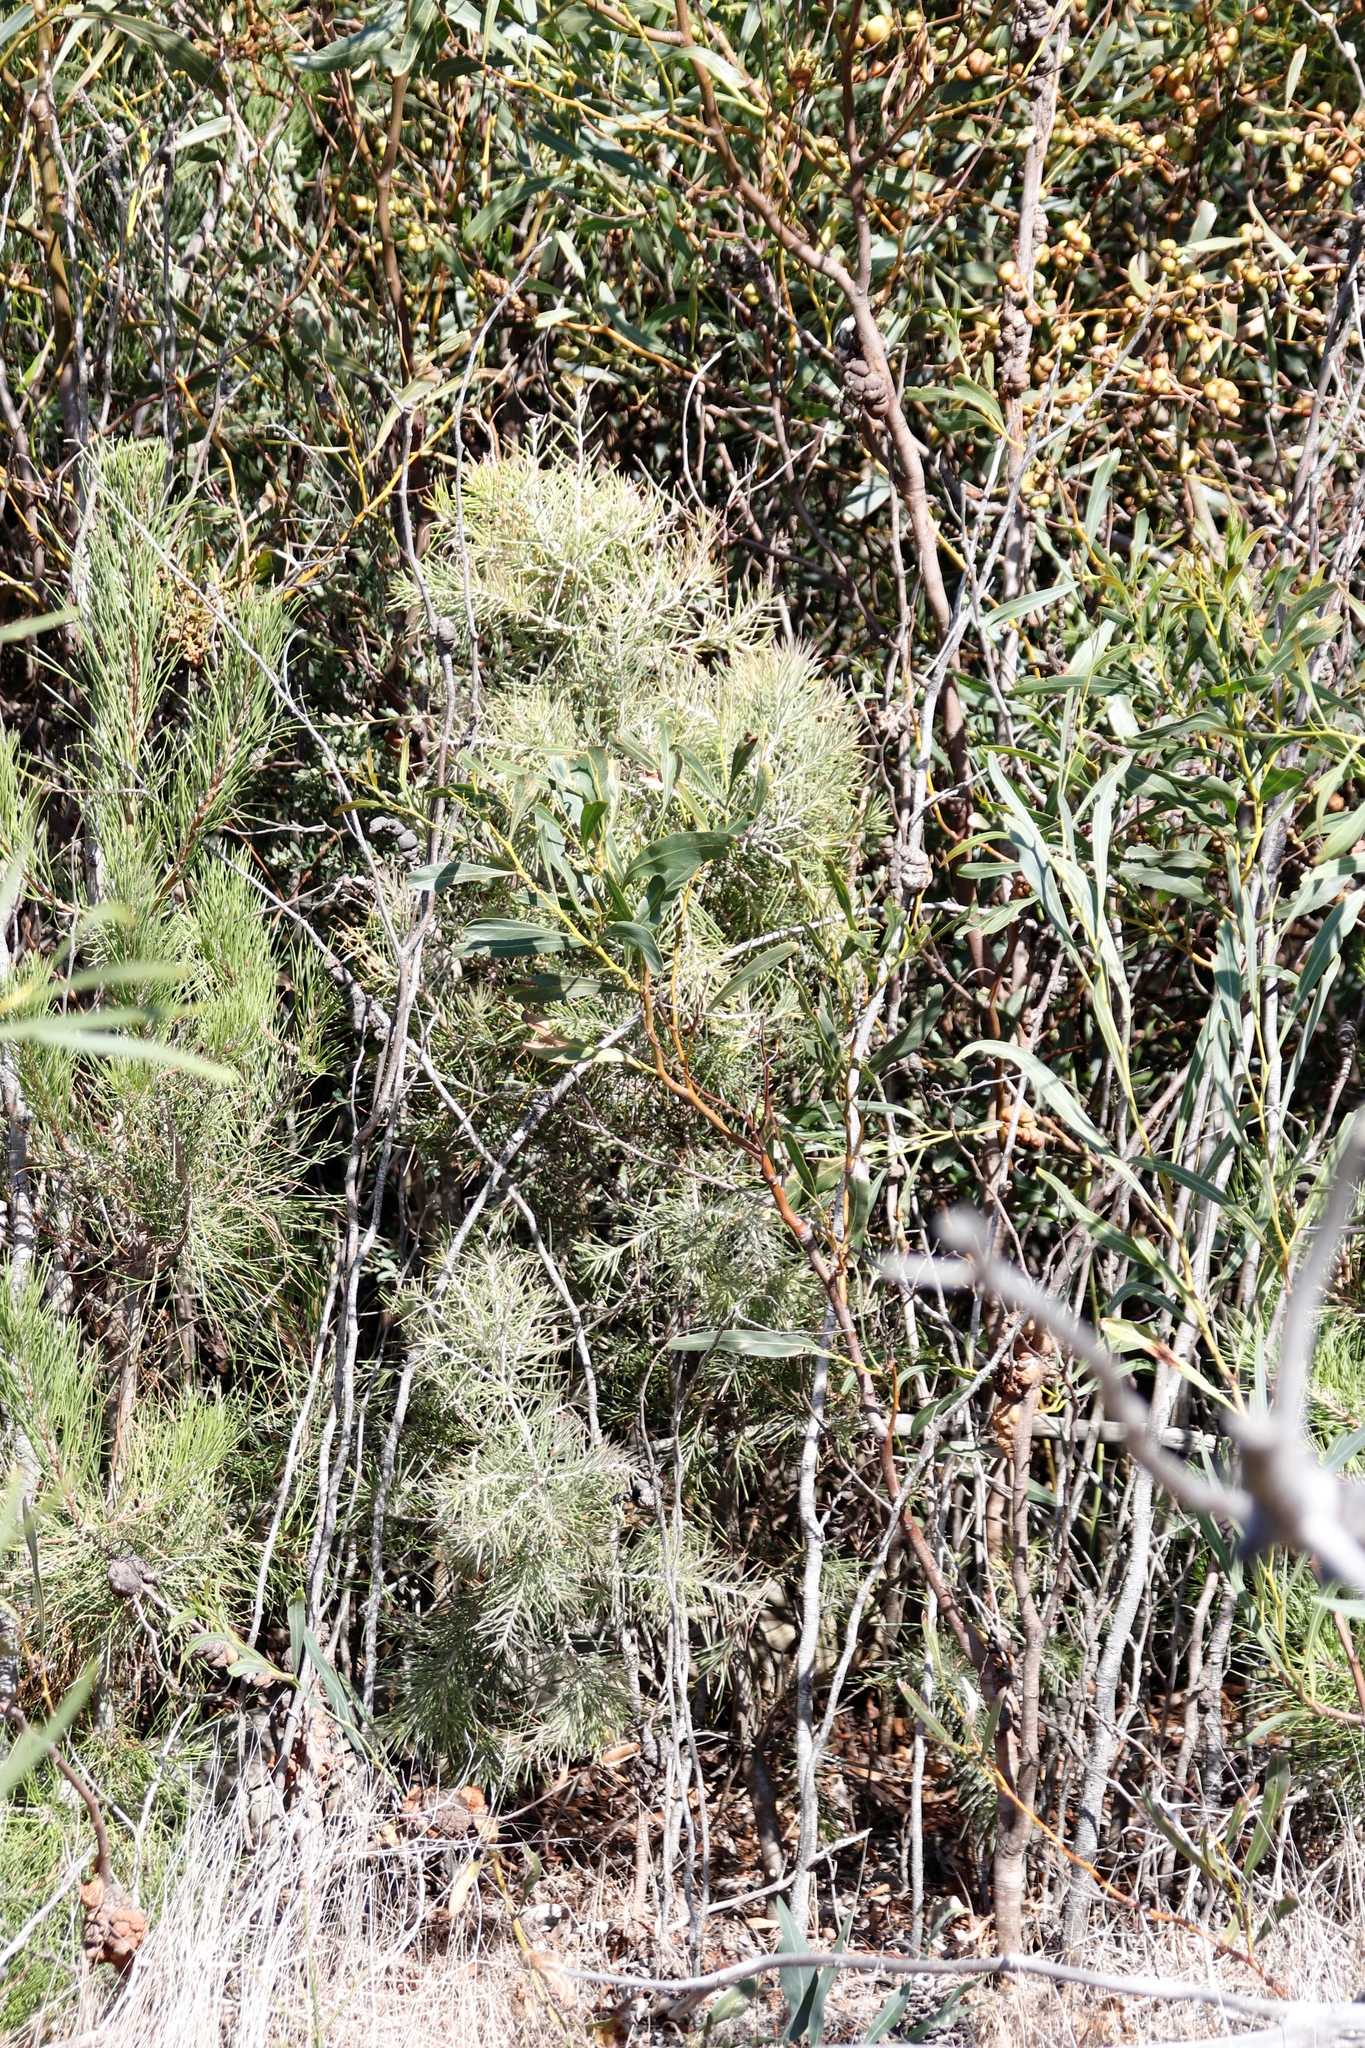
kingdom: Plantae
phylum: Tracheophyta
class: Magnoliopsida
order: Proteales
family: Proteaceae
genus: Hakea
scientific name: Hakea gibbosa
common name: Rock hakea
